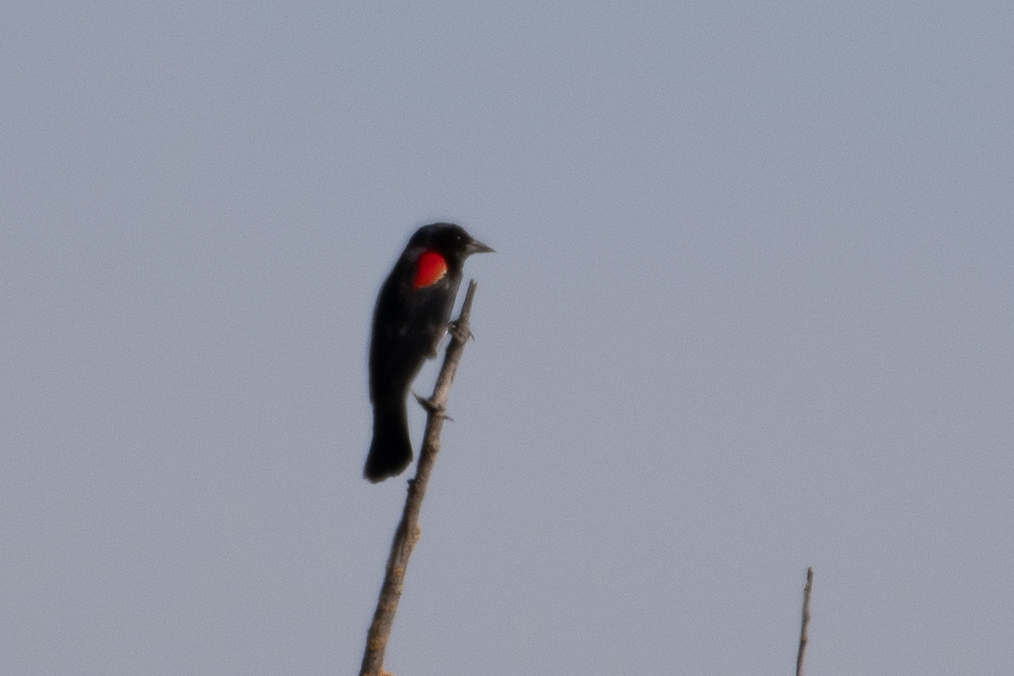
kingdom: Animalia
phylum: Chordata
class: Aves
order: Passeriformes
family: Icteridae
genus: Agelaius
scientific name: Agelaius phoeniceus
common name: Red-winged blackbird
